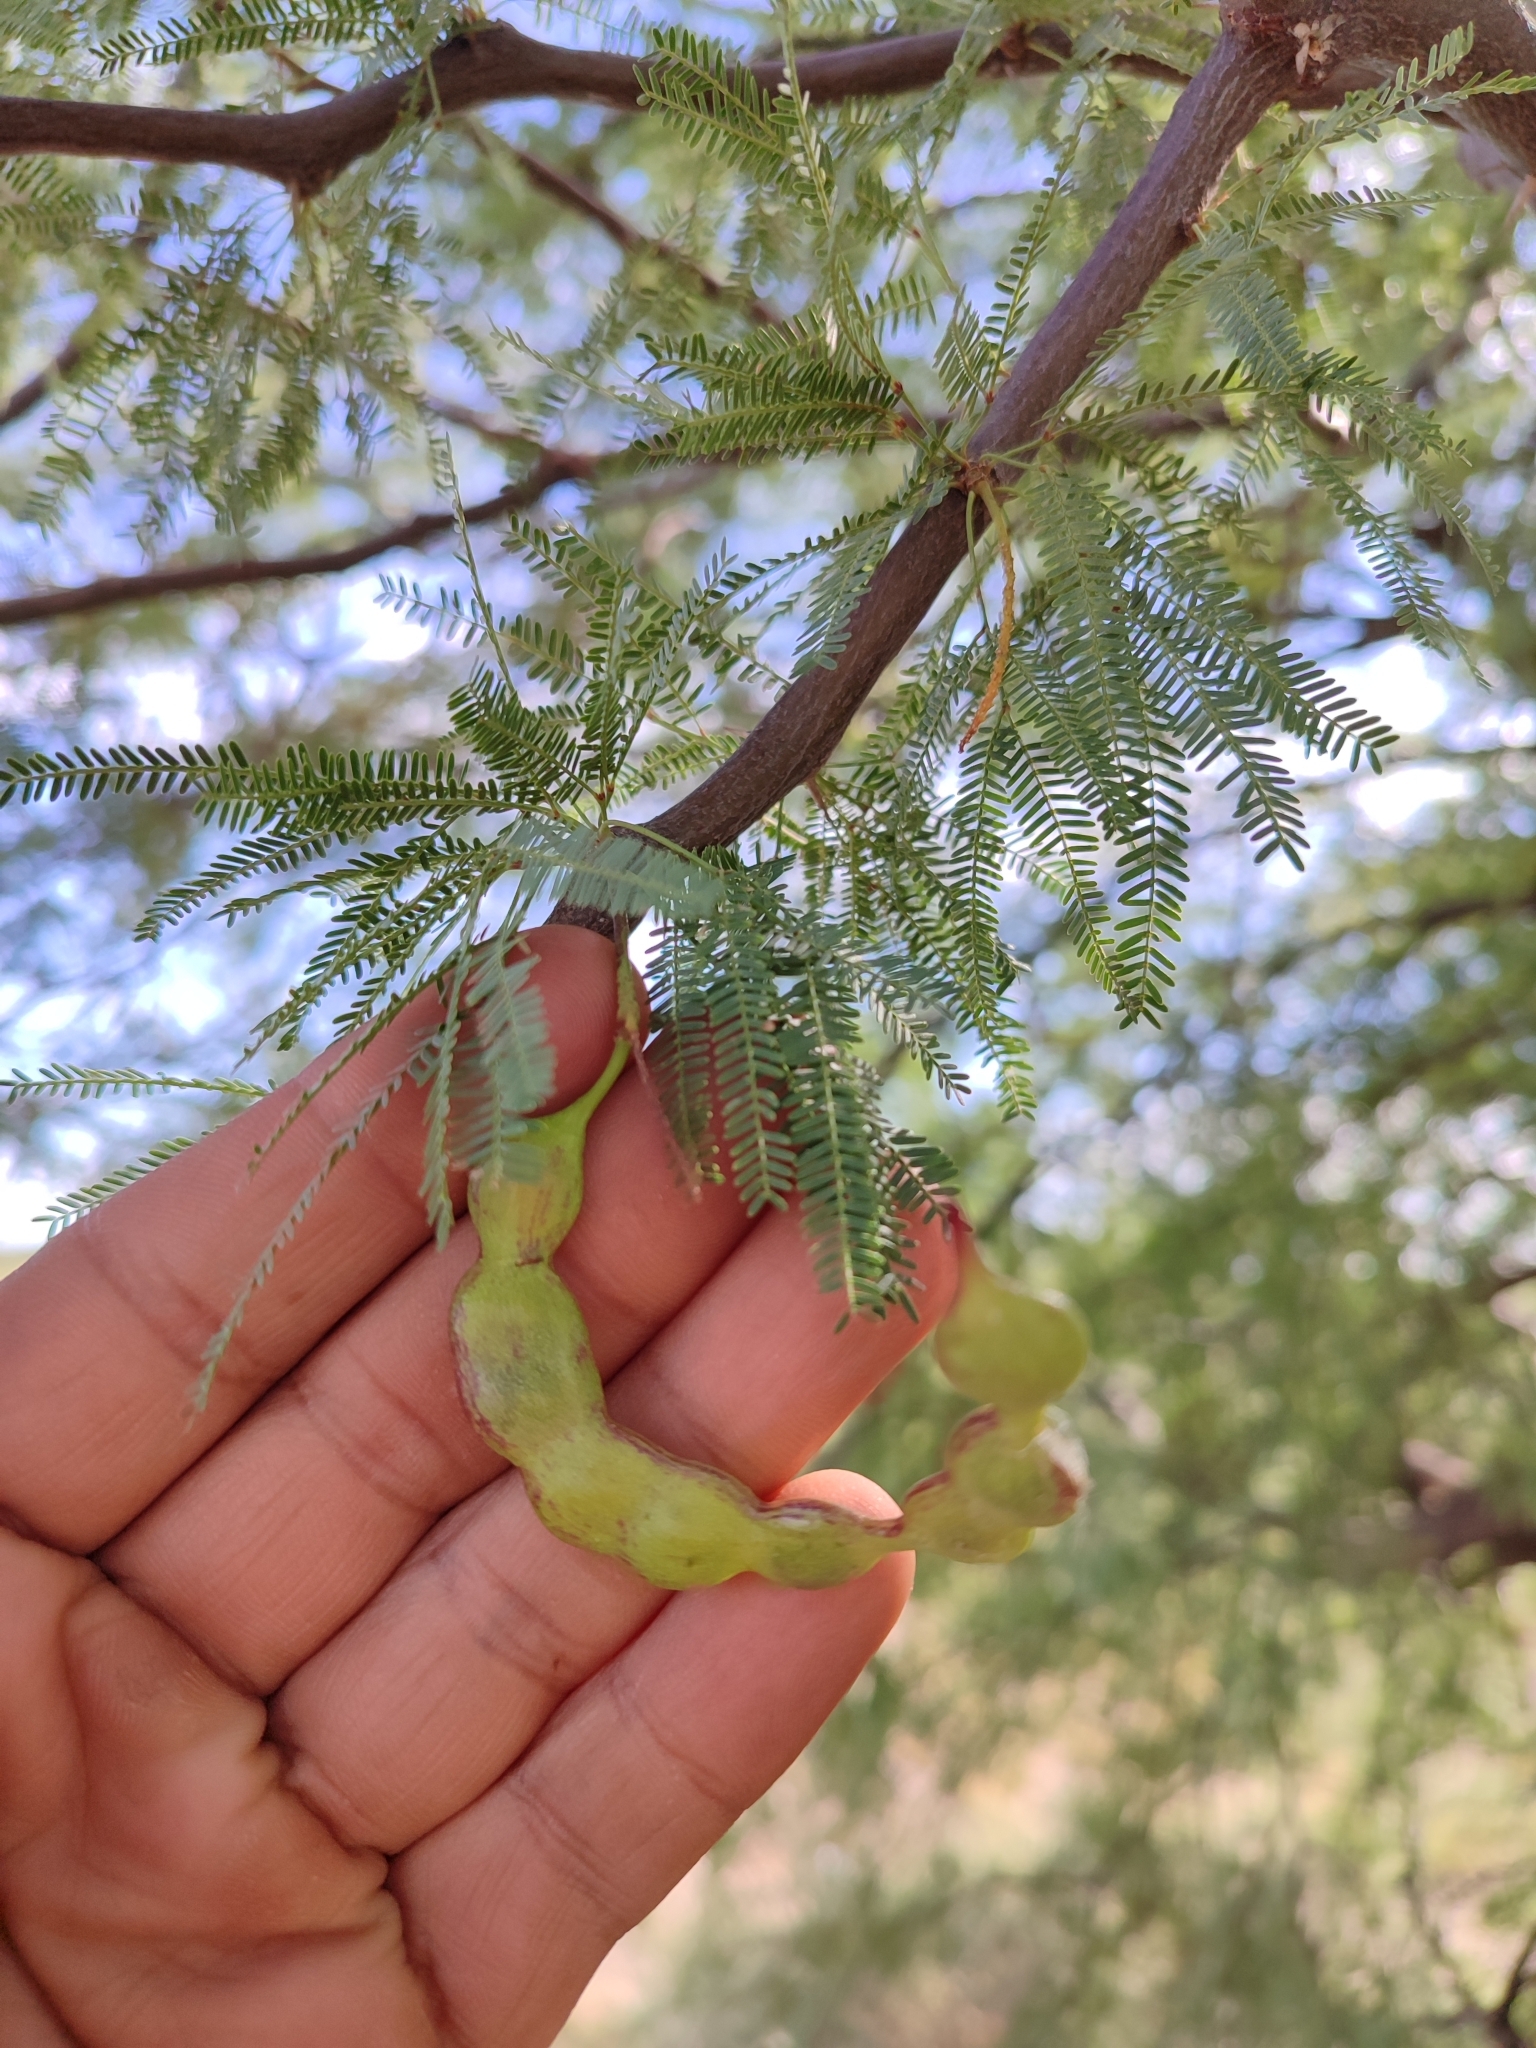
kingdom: Plantae
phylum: Tracheophyta
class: Magnoliopsida
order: Fabales
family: Fabaceae
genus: Prosopis
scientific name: Prosopis caldenia
